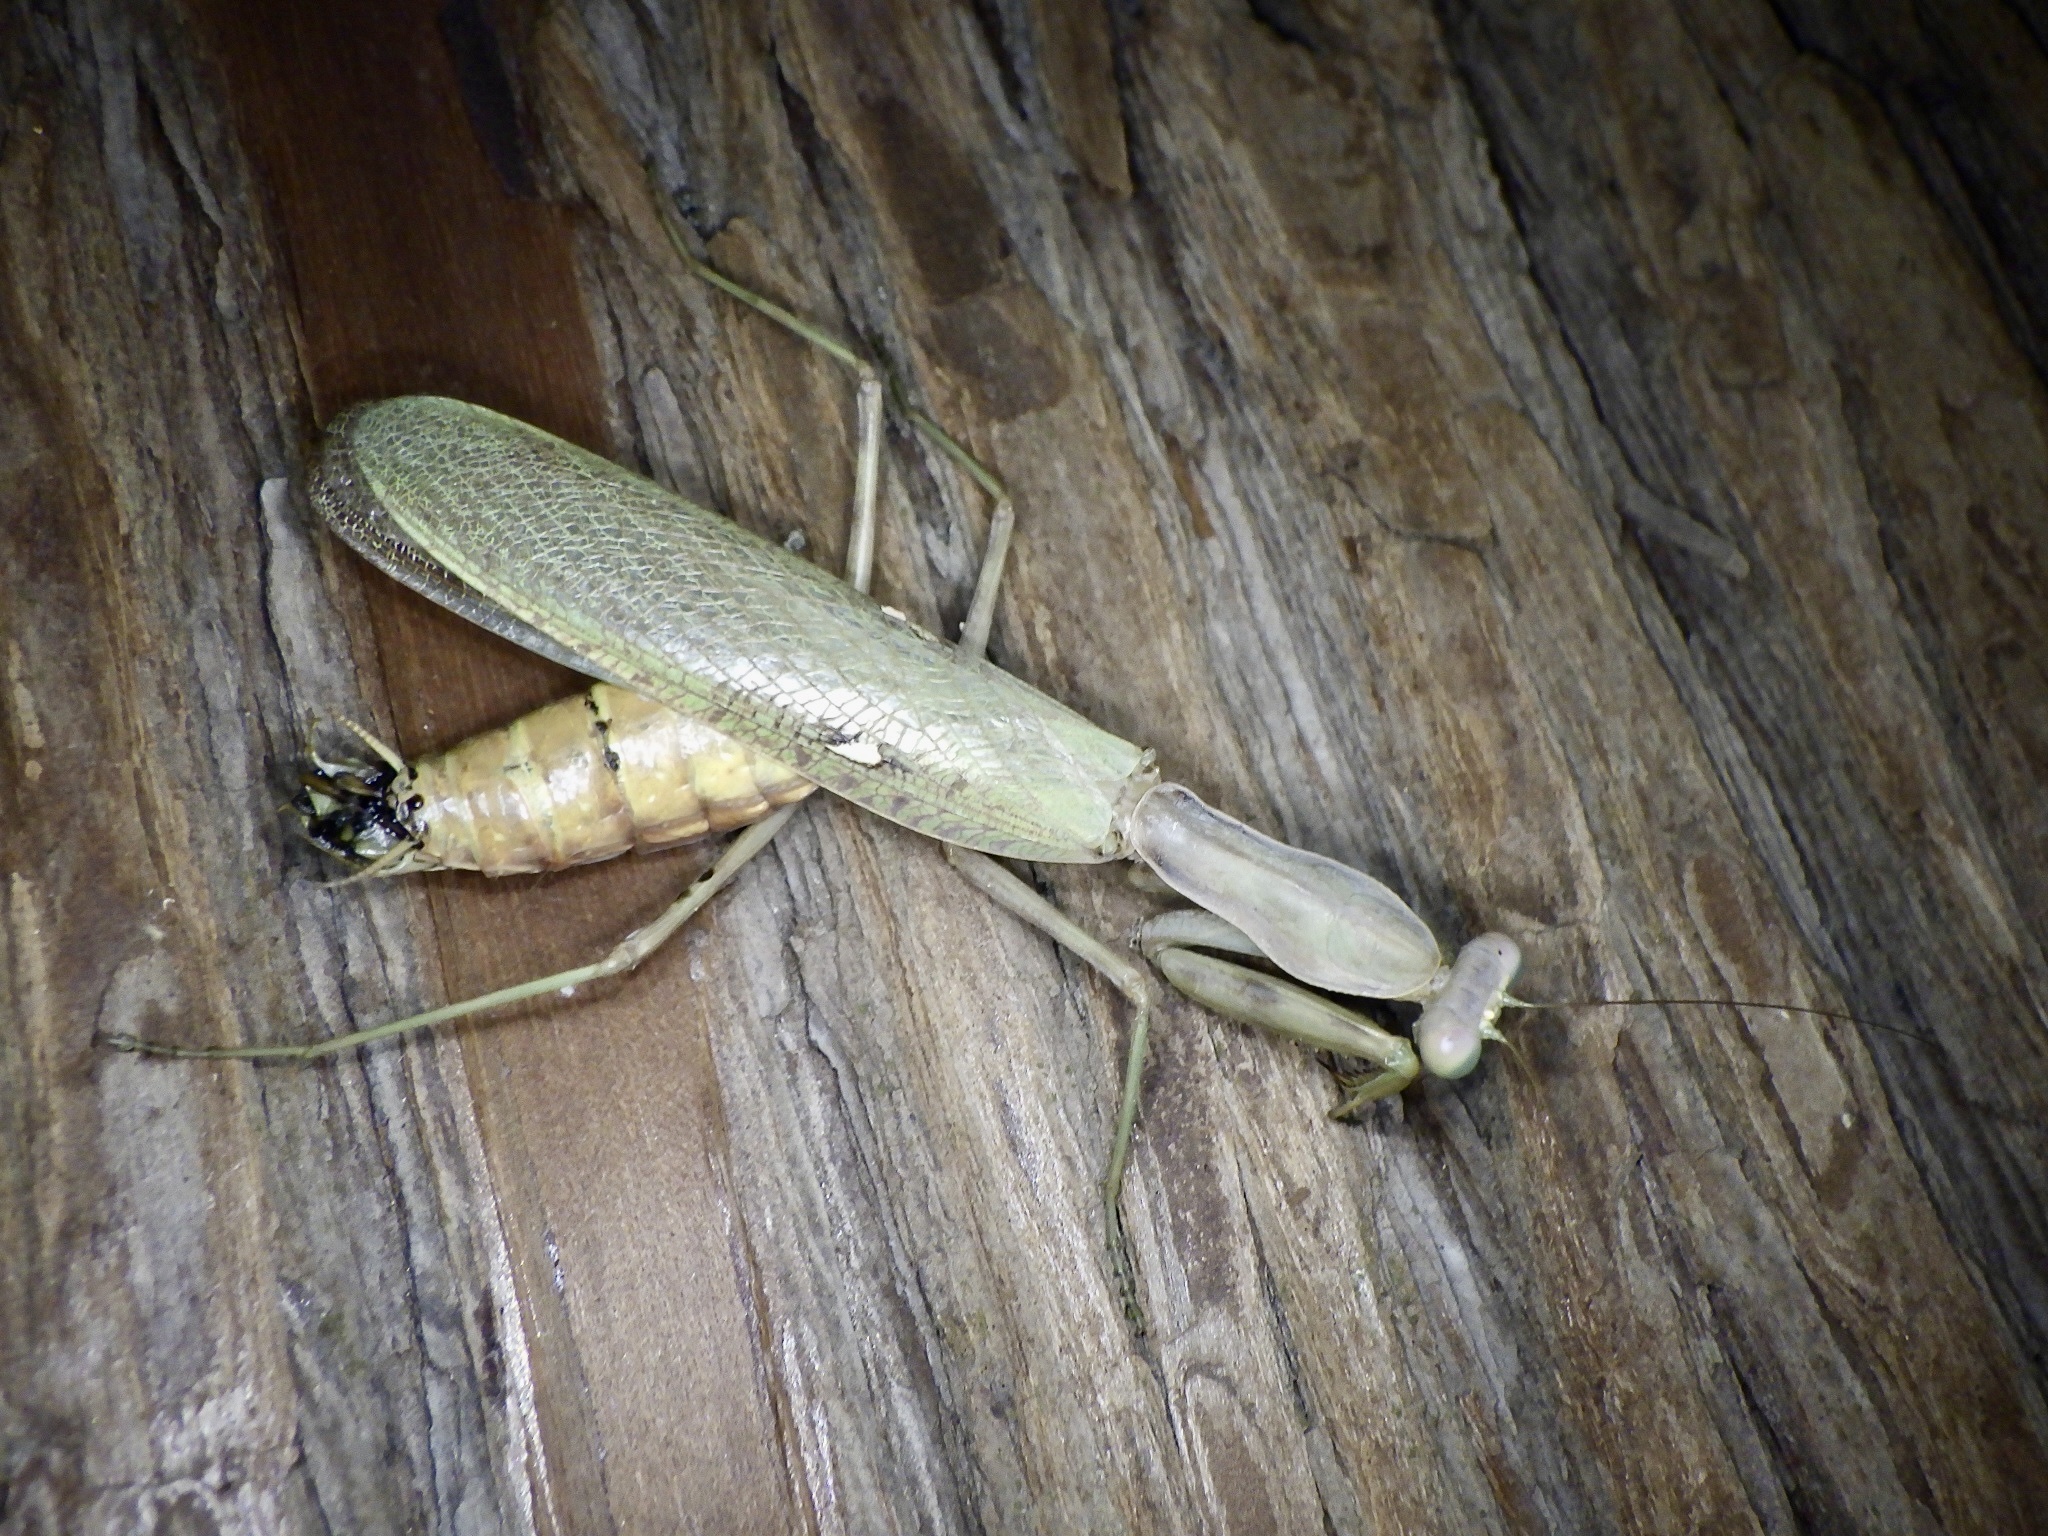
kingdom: Animalia
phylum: Arthropoda
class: Insecta
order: Mantodea
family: Mantidae
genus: Hierodula
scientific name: Hierodula patellifera
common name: Asian mantis
